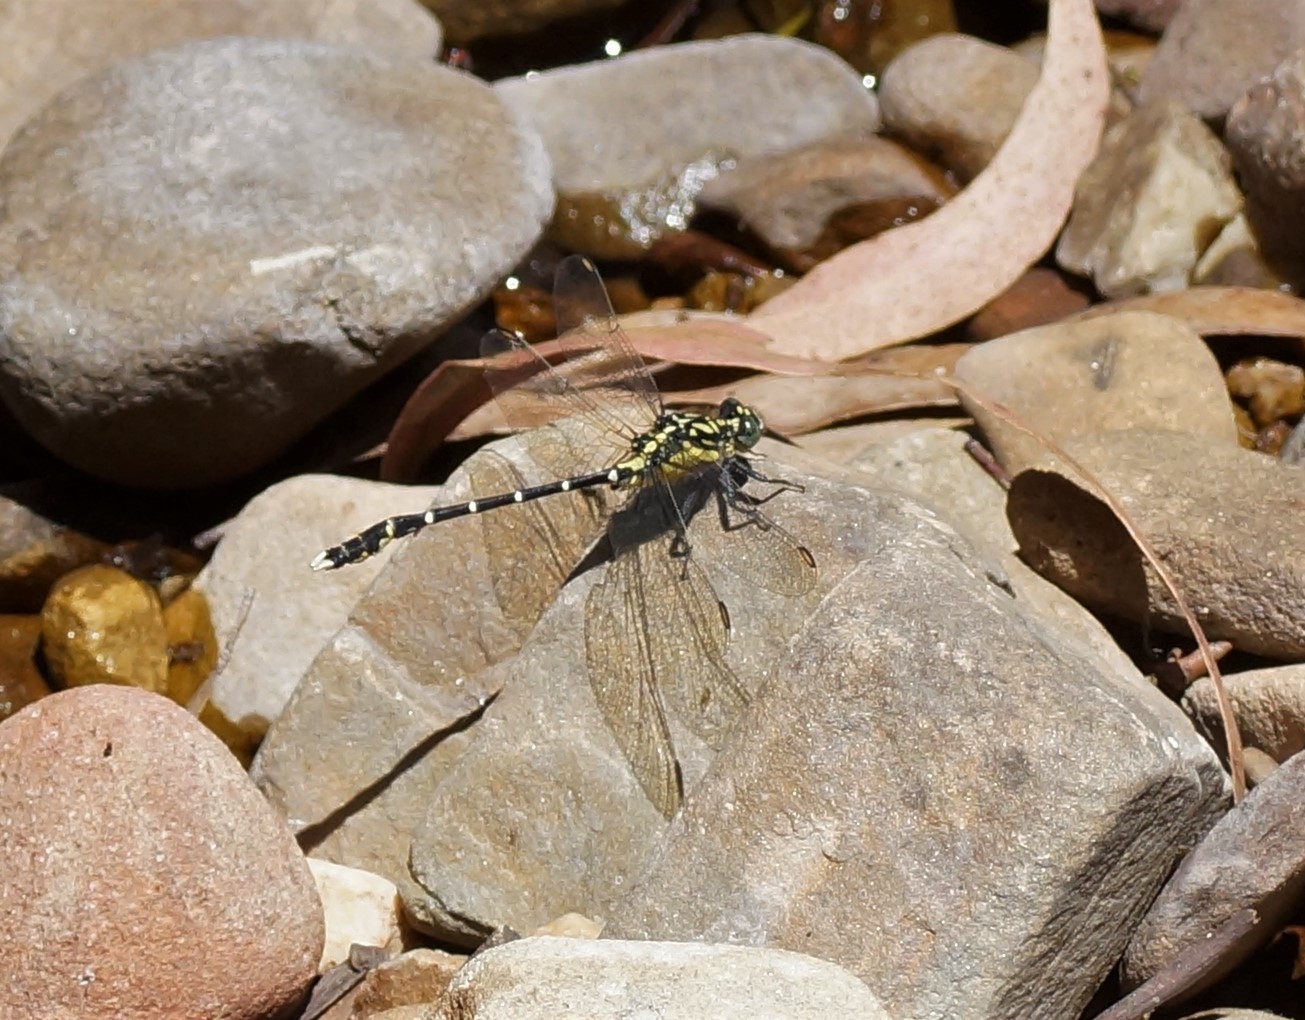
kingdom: Animalia
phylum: Arthropoda
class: Insecta
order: Odonata
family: Gomphidae
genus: Hemigomphus
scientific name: Hemigomphus gouldii
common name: Southern vicetail
